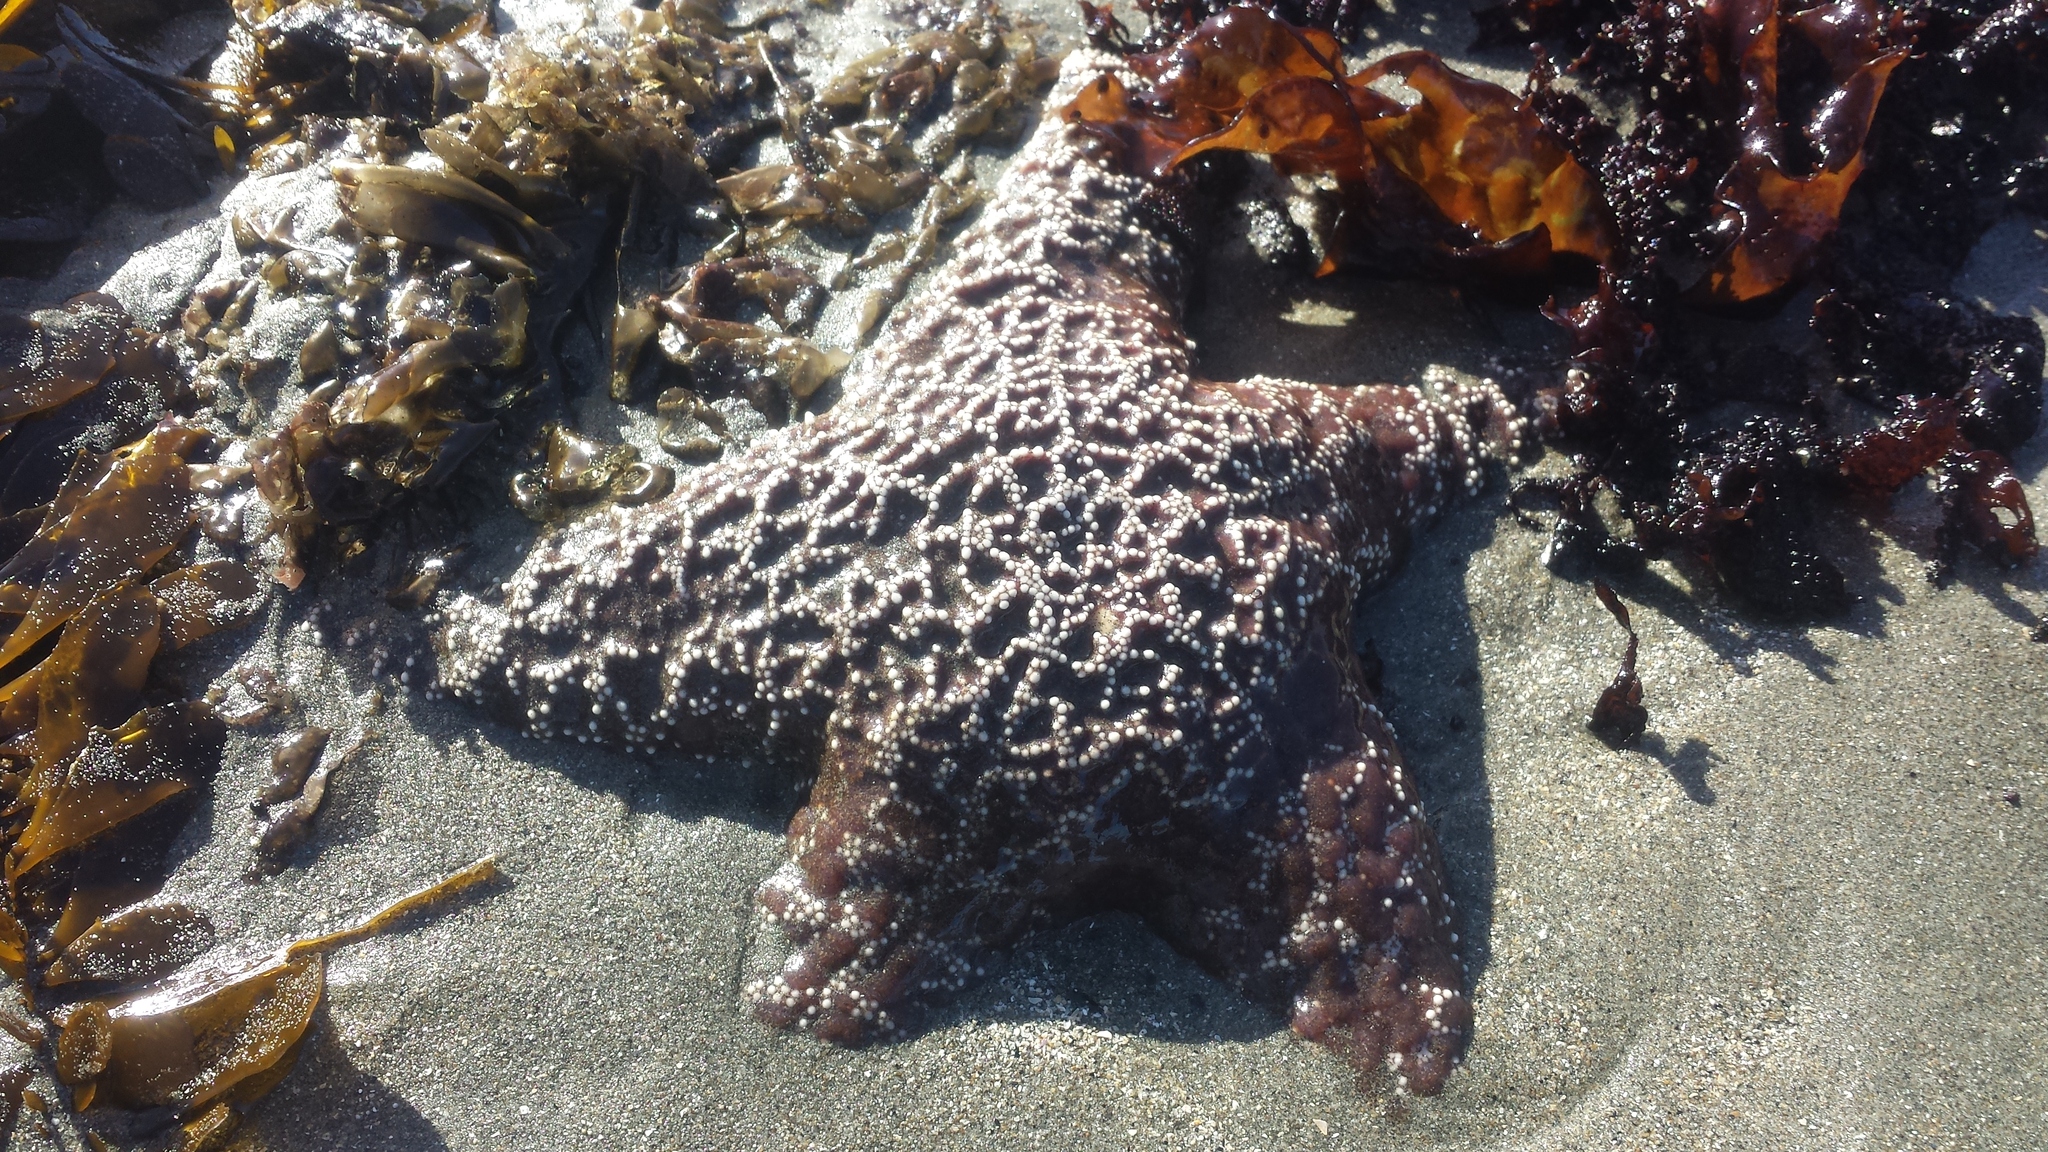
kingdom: Animalia
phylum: Echinodermata
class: Asteroidea
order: Forcipulatida
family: Asteriidae
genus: Pisaster
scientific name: Pisaster ochraceus
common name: Ochre stars
